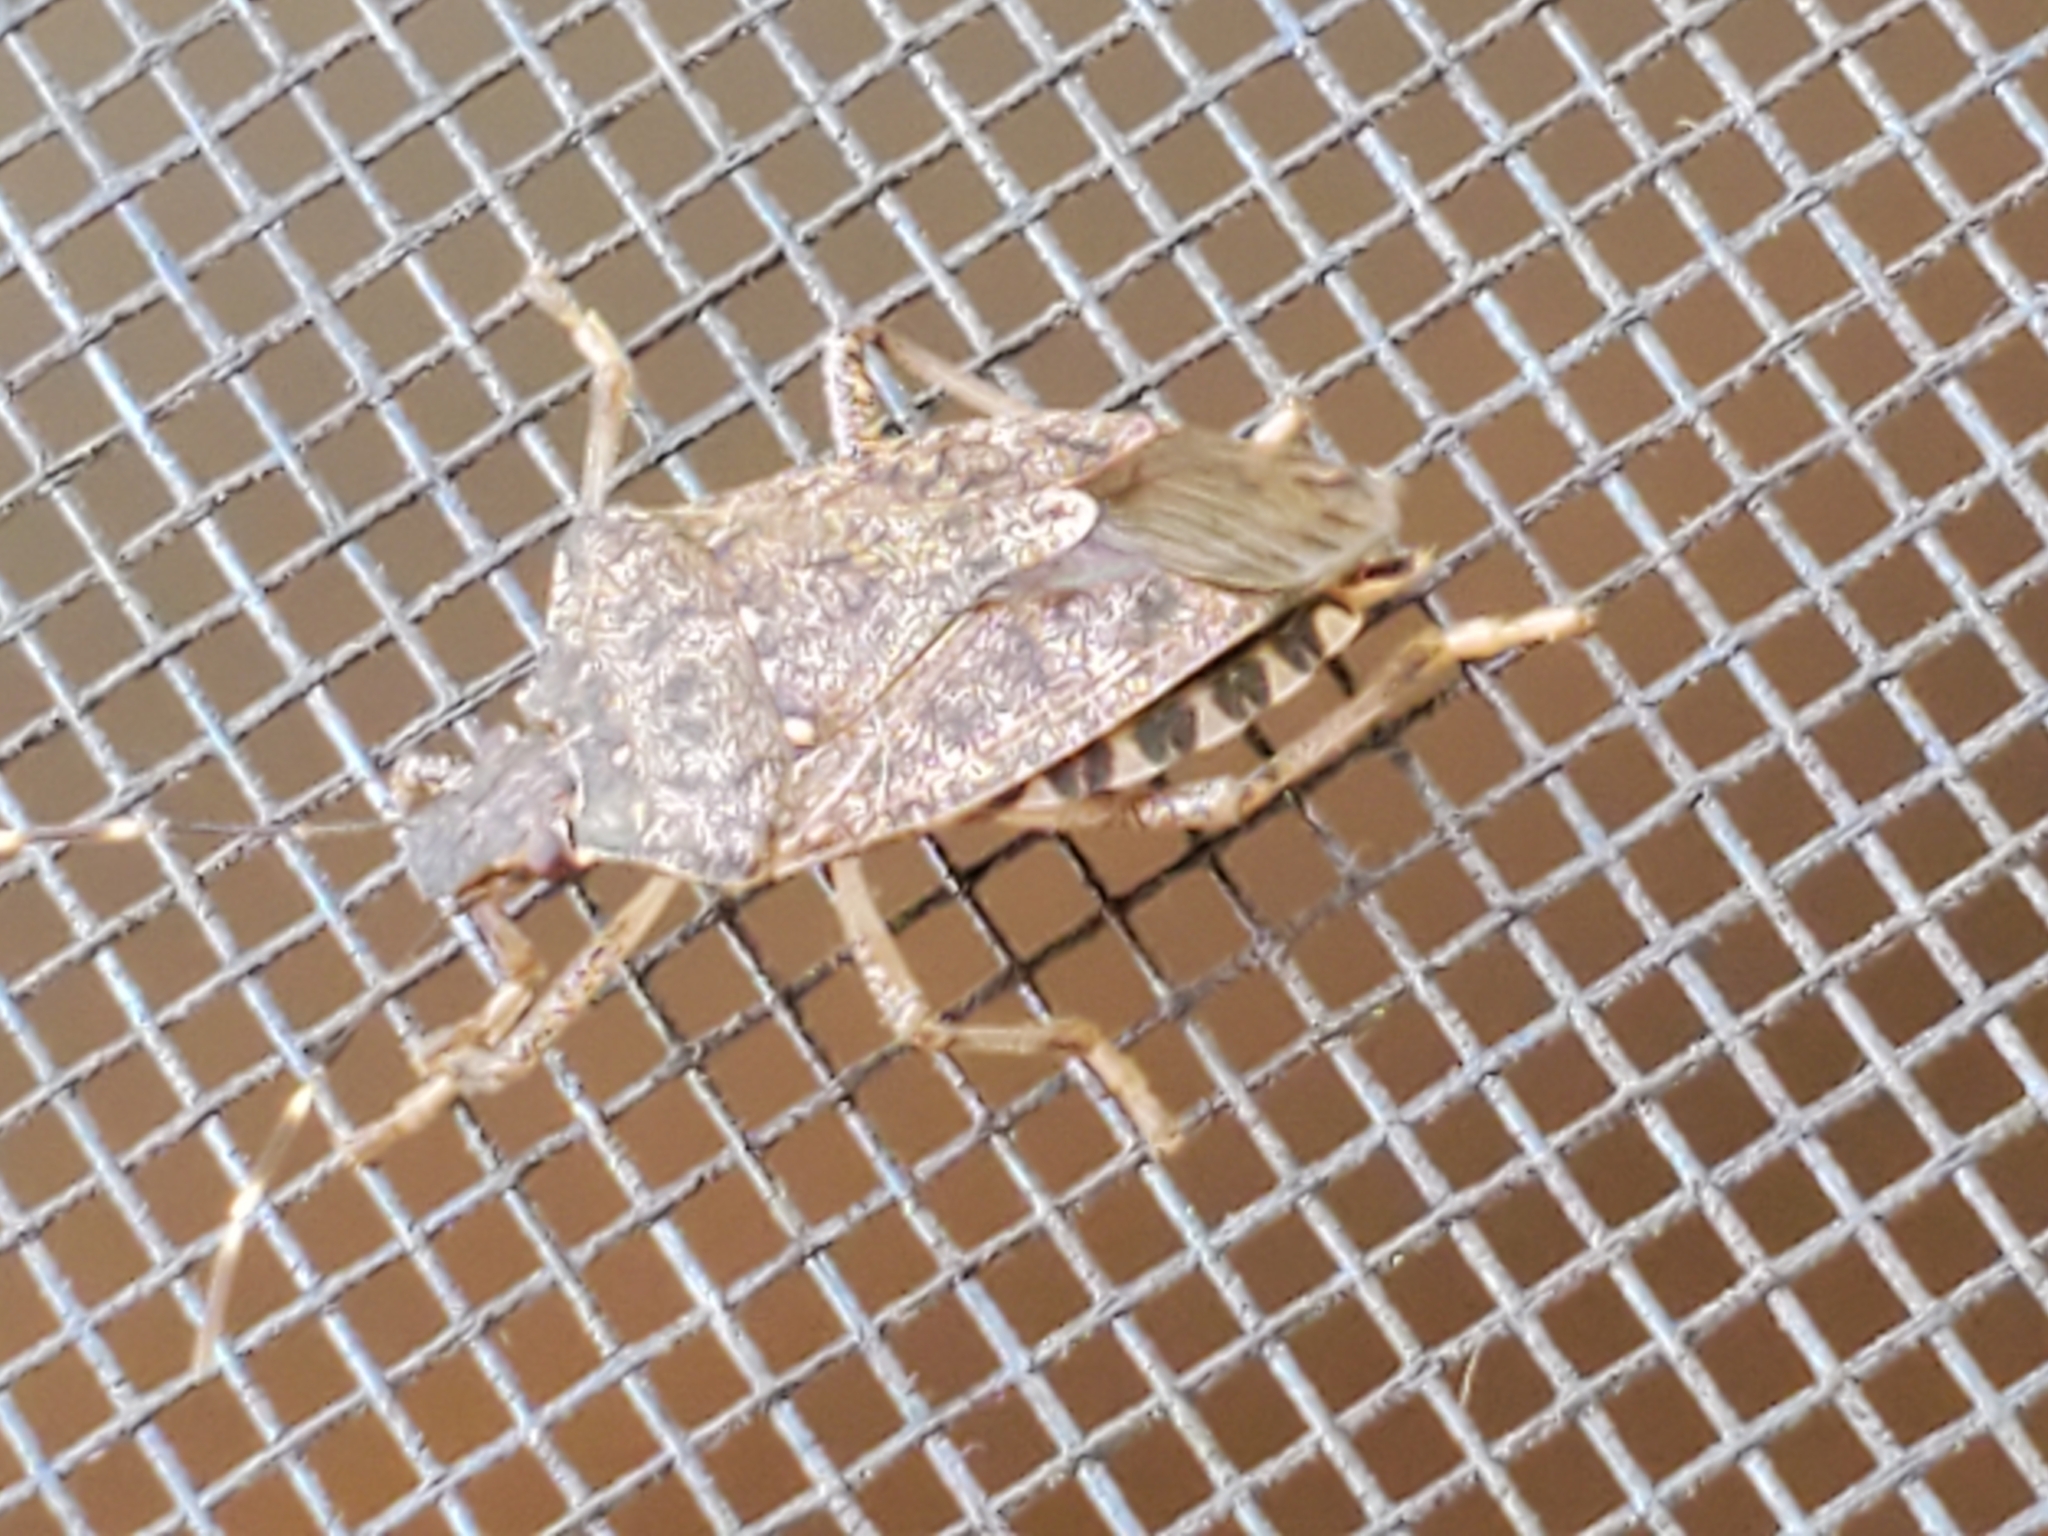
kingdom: Animalia
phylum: Arthropoda
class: Insecta
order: Hemiptera
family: Pentatomidae
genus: Halyomorpha
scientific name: Halyomorpha halys
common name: Brown marmorated stink bug
